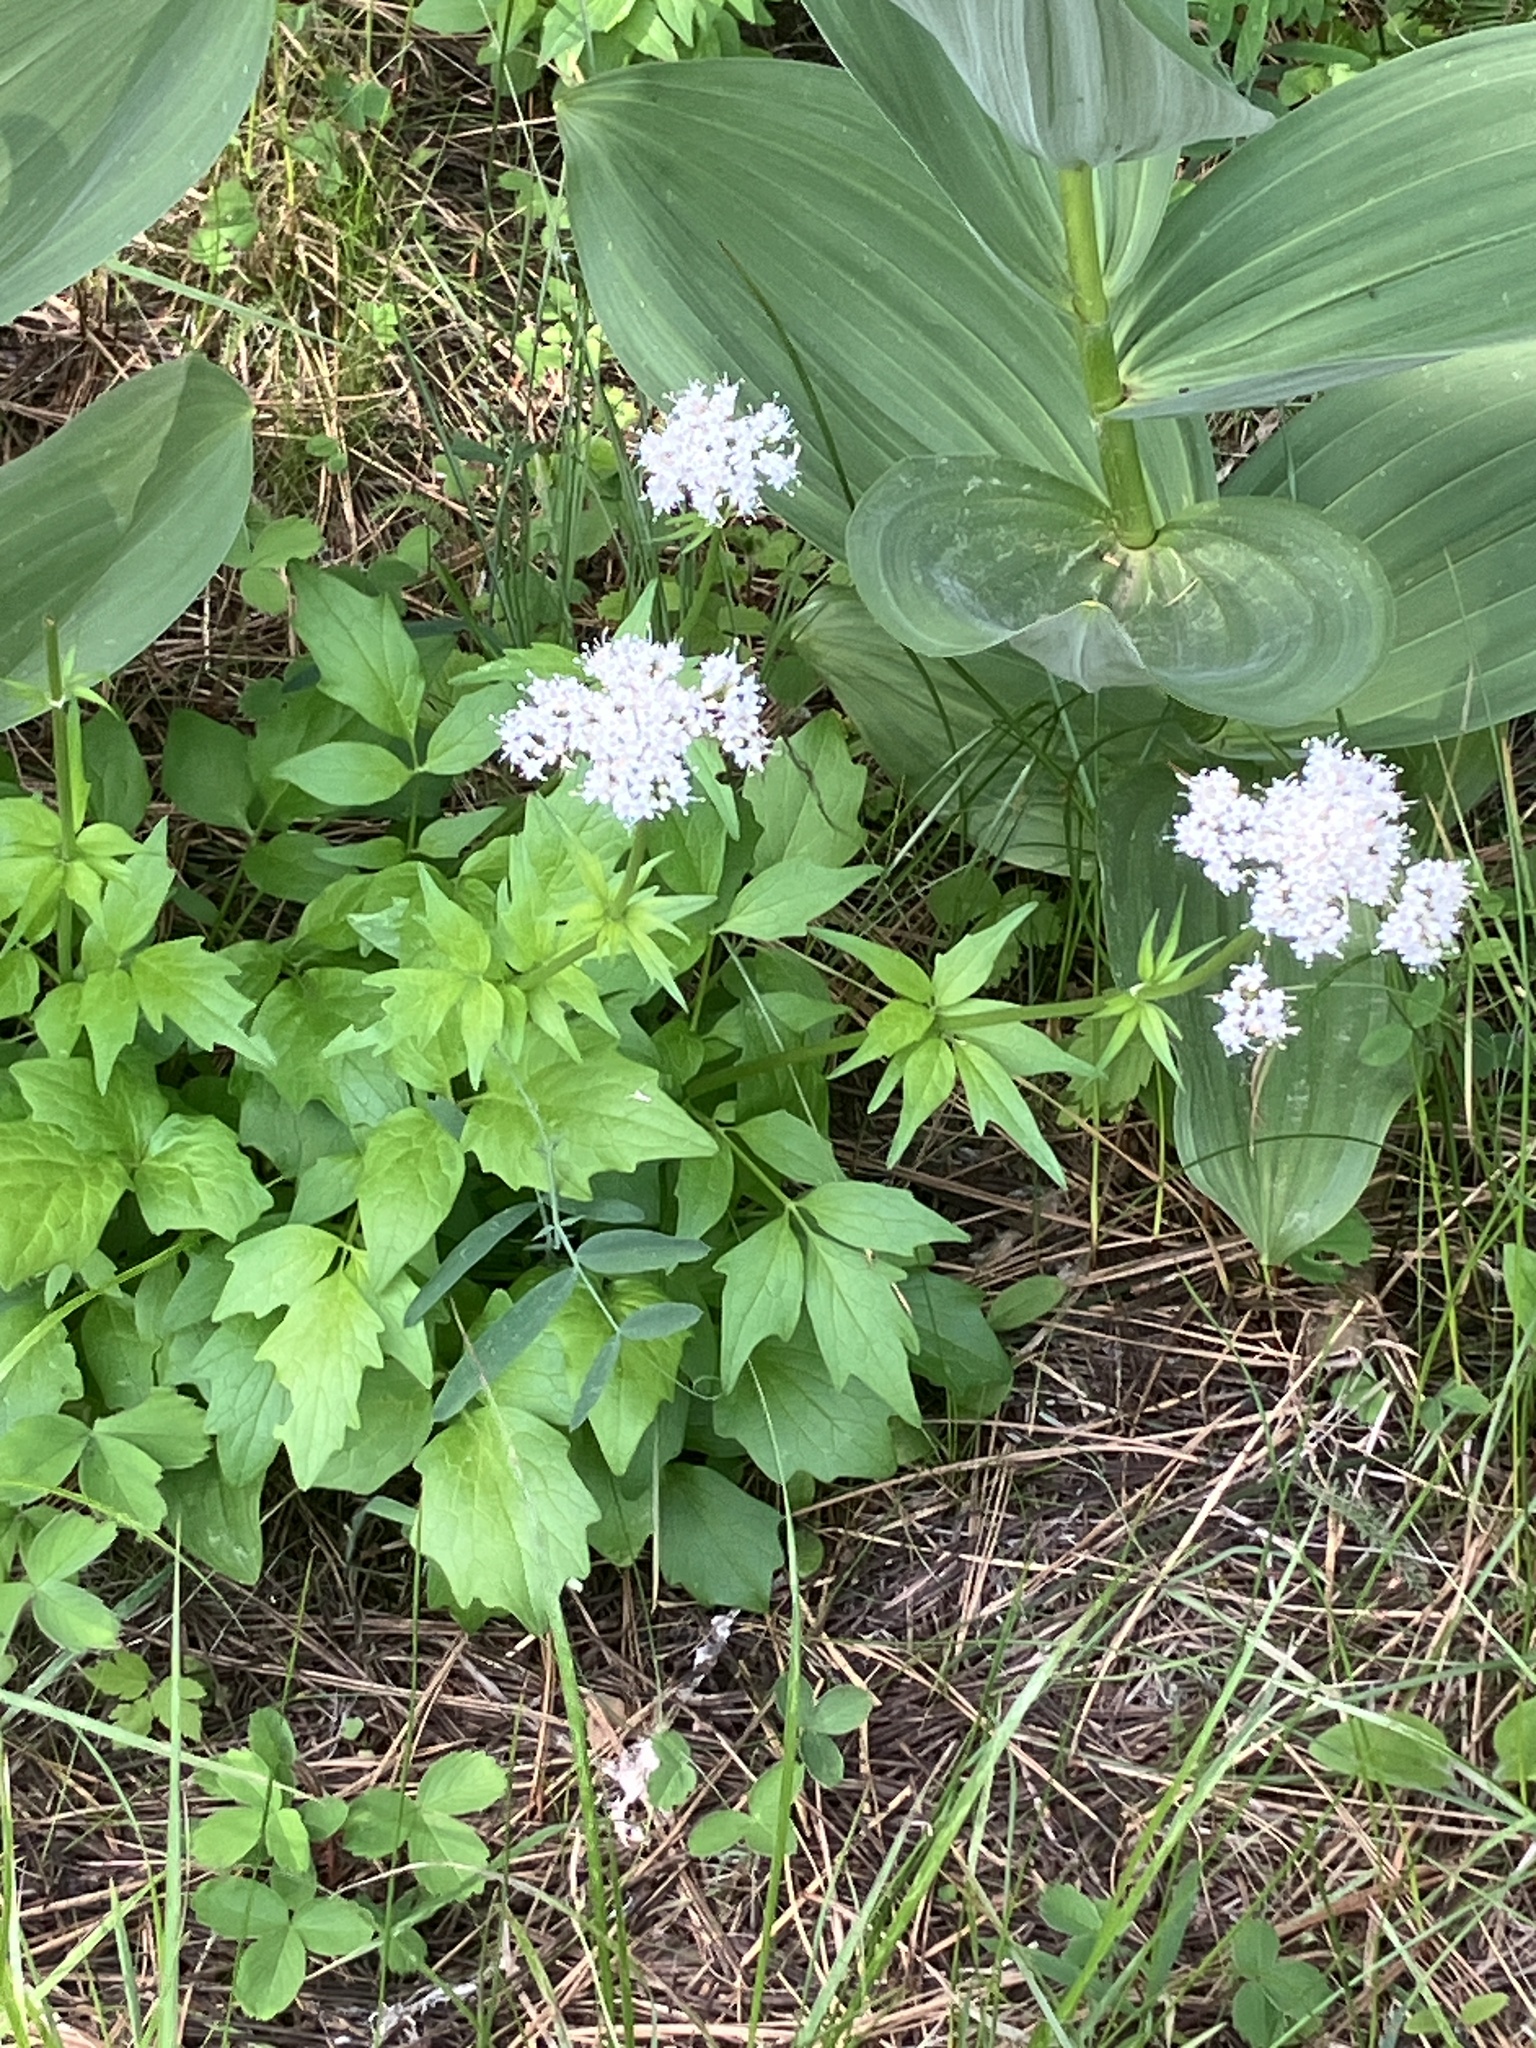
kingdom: Plantae
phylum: Tracheophyta
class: Magnoliopsida
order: Dipsacales
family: Caprifoliaceae
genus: Valeriana
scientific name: Valeriana sitchensis
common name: Pacific valerian
